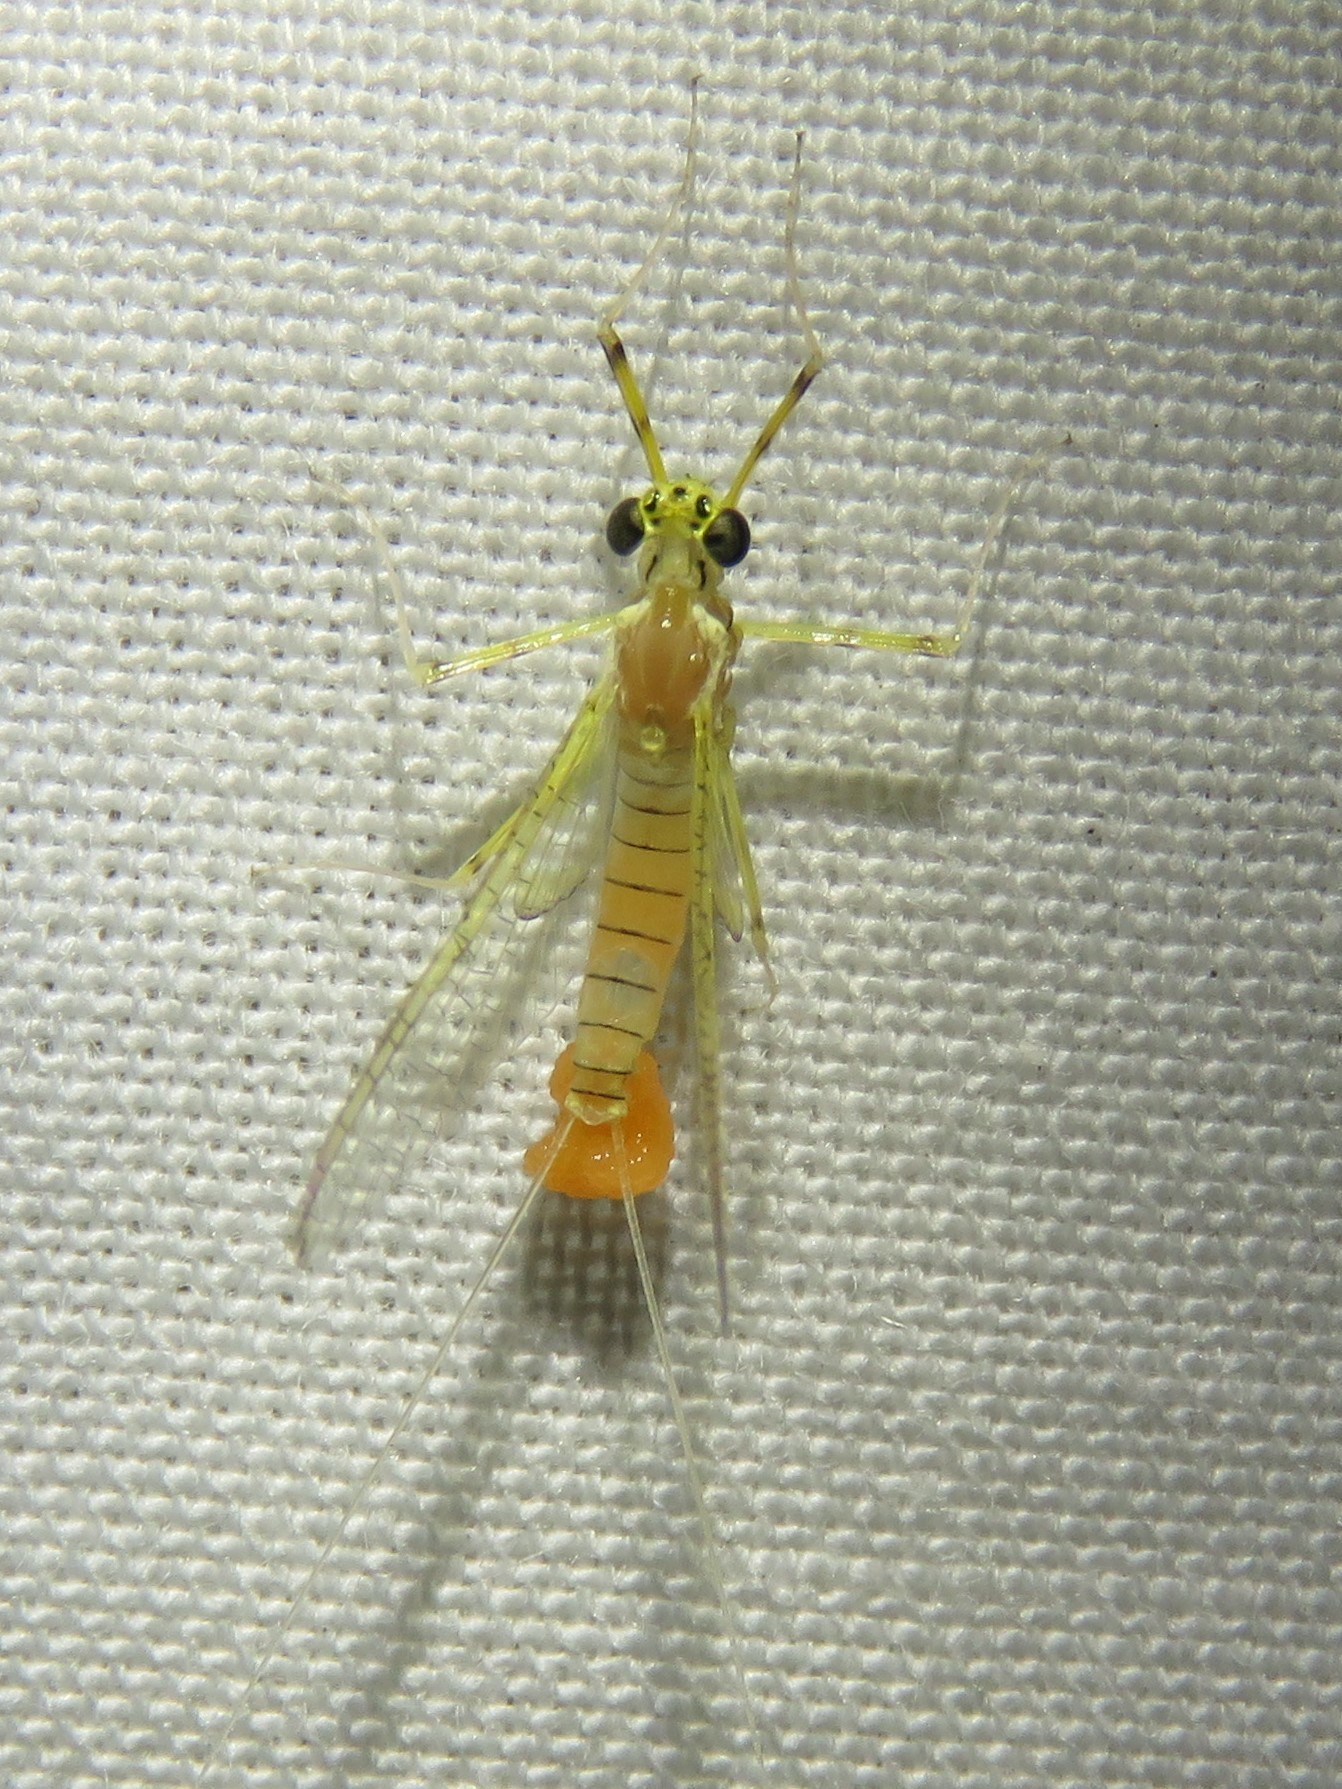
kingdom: Animalia
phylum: Arthropoda
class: Insecta
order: Ephemeroptera
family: Heptageniidae
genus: Stenacron
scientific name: Stenacron interpunctatum
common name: Orange cahill
